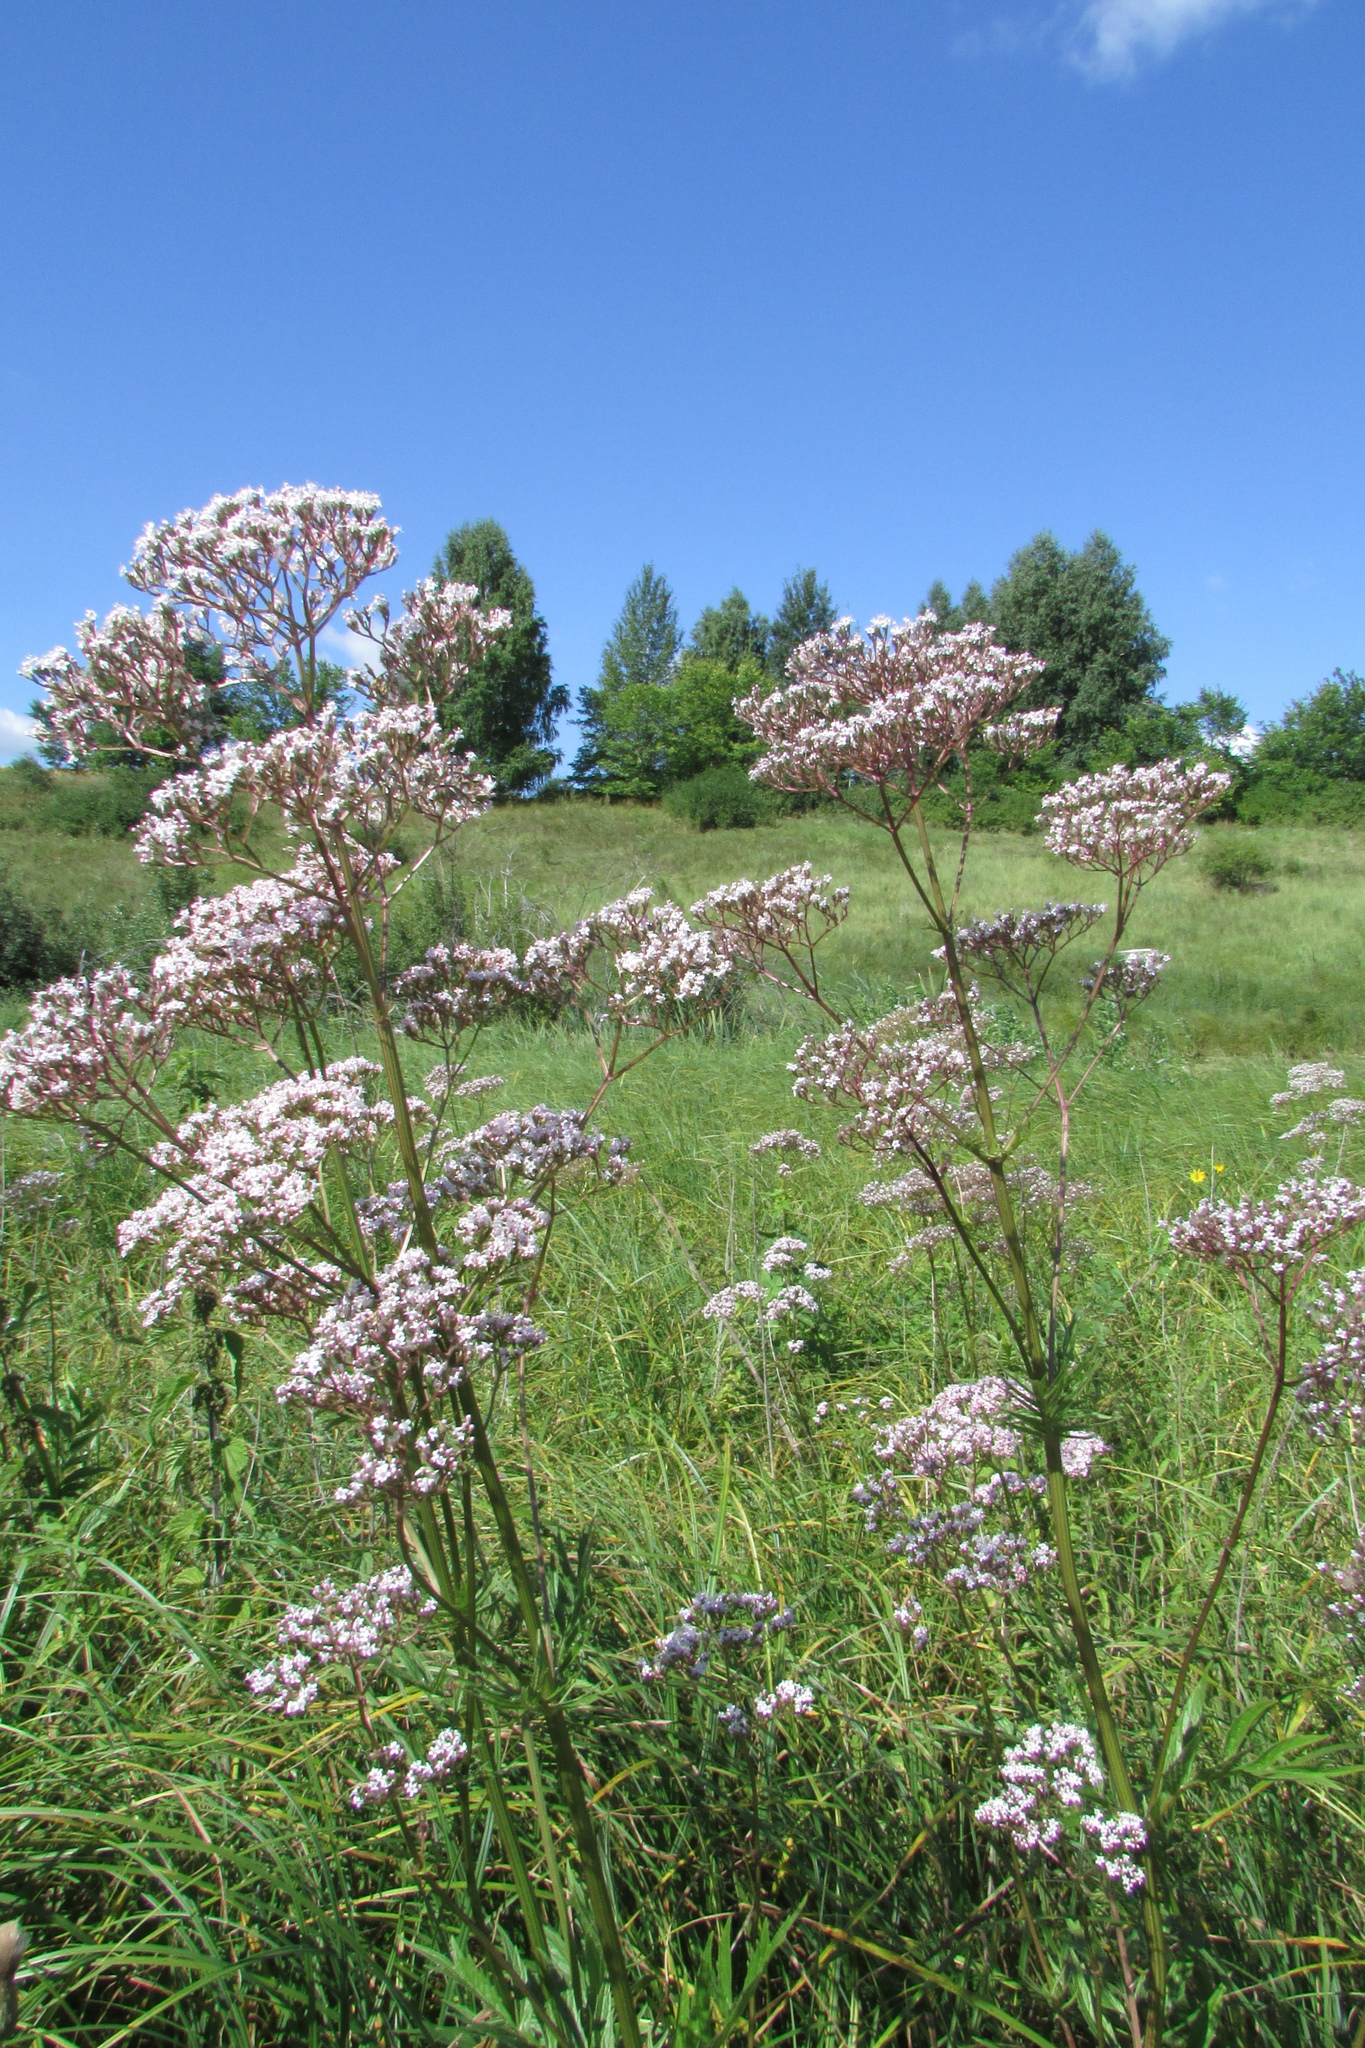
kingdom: Plantae
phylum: Tracheophyta
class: Magnoliopsida
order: Dipsacales
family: Caprifoliaceae
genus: Valeriana
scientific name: Valeriana officinalis
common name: Common valerian
